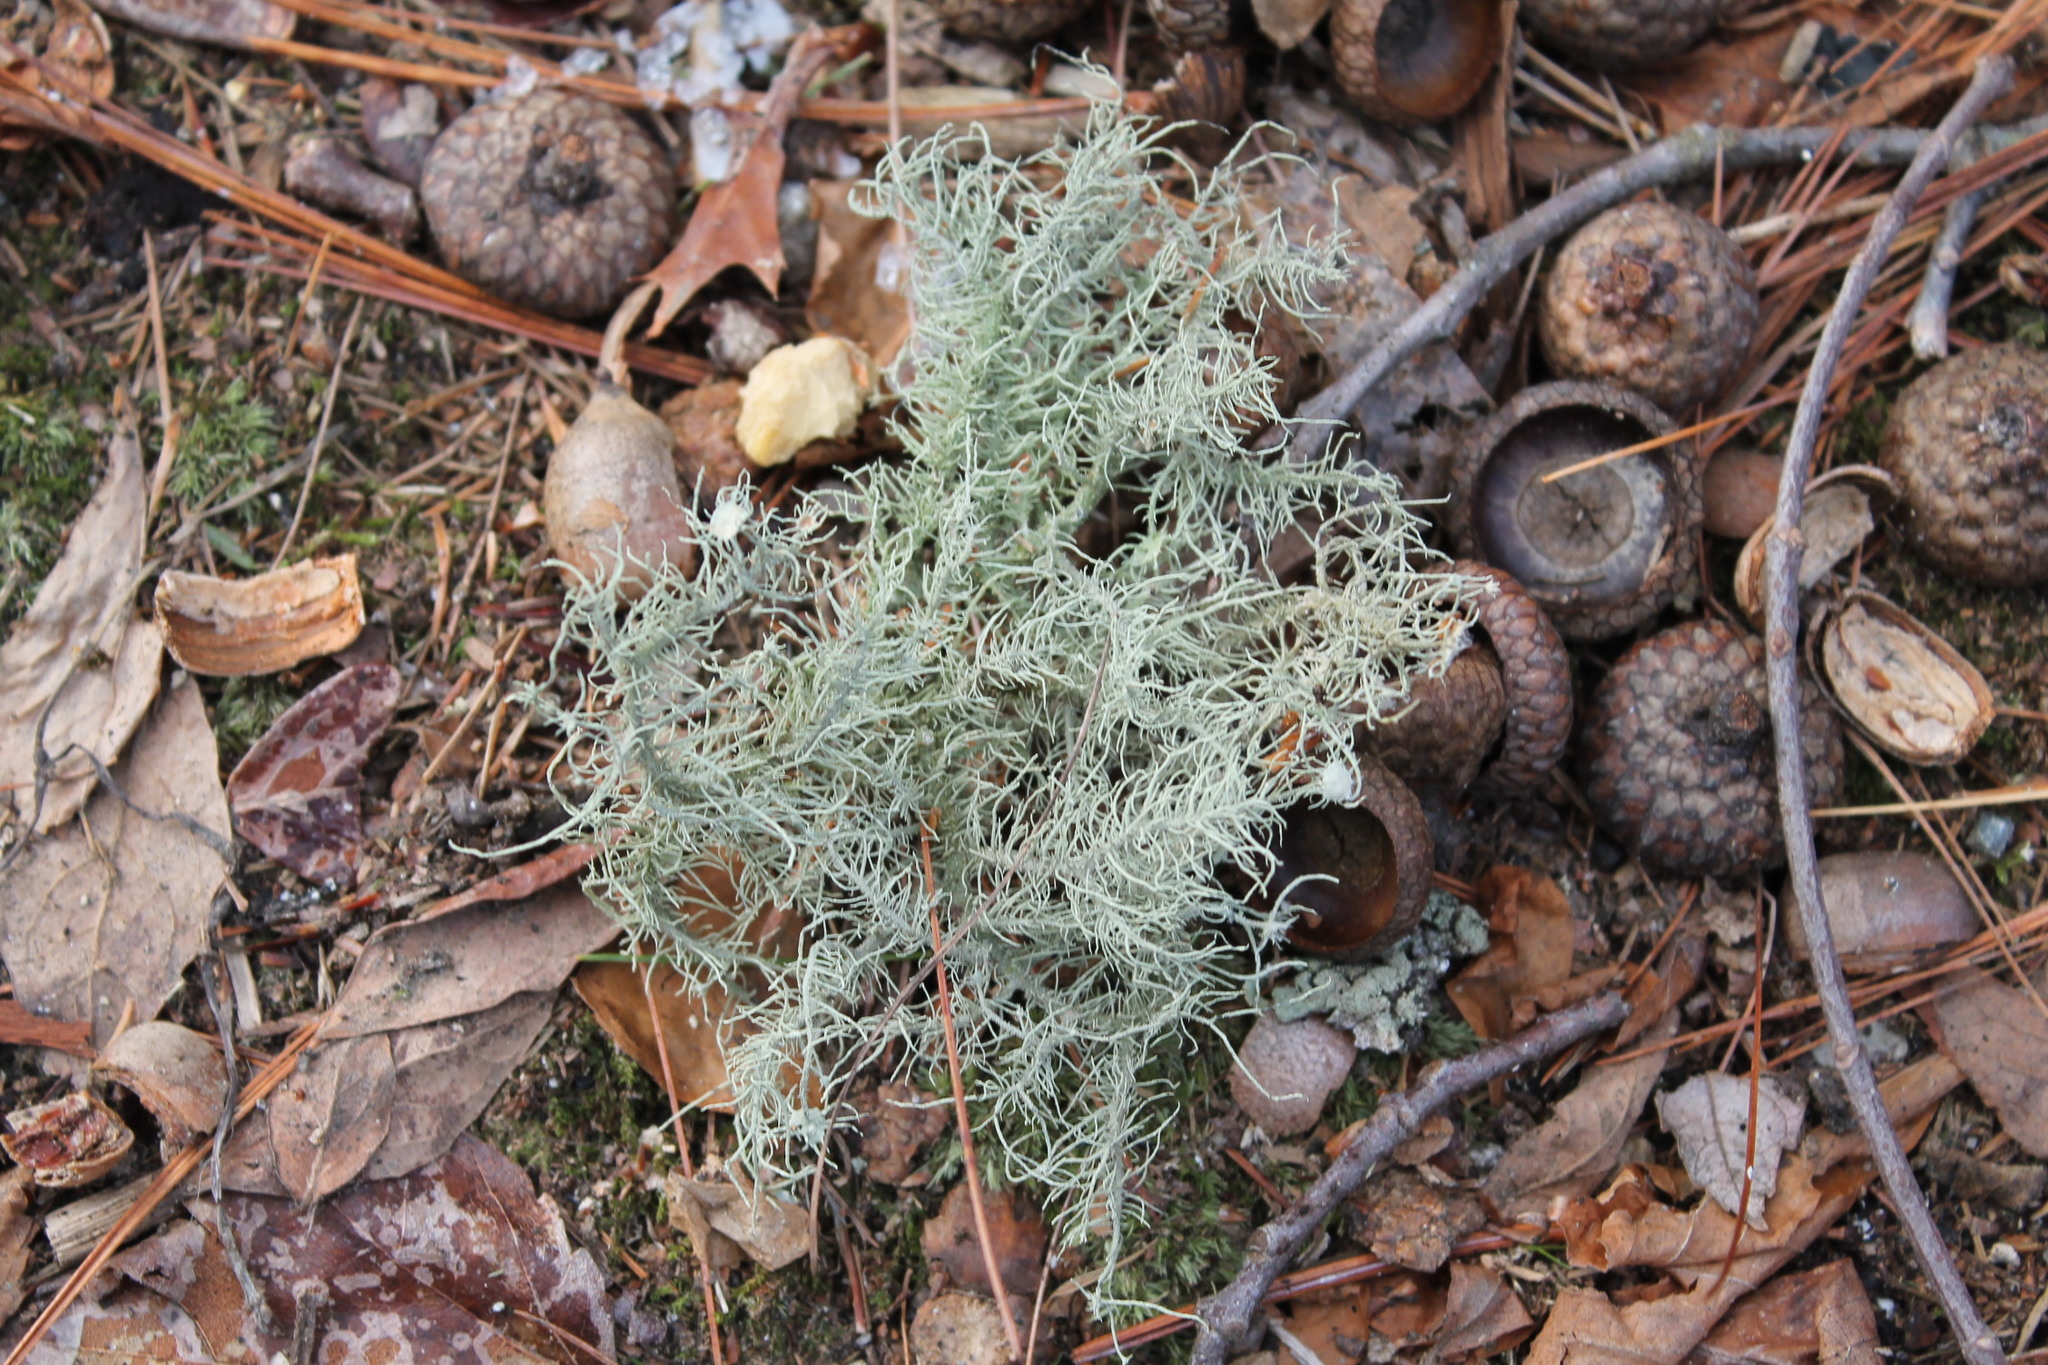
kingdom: Fungi
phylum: Ascomycota
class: Lecanoromycetes
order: Lecanorales
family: Parmeliaceae
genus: Usnea
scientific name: Usnea strigosa
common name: Bushy beard lichen
